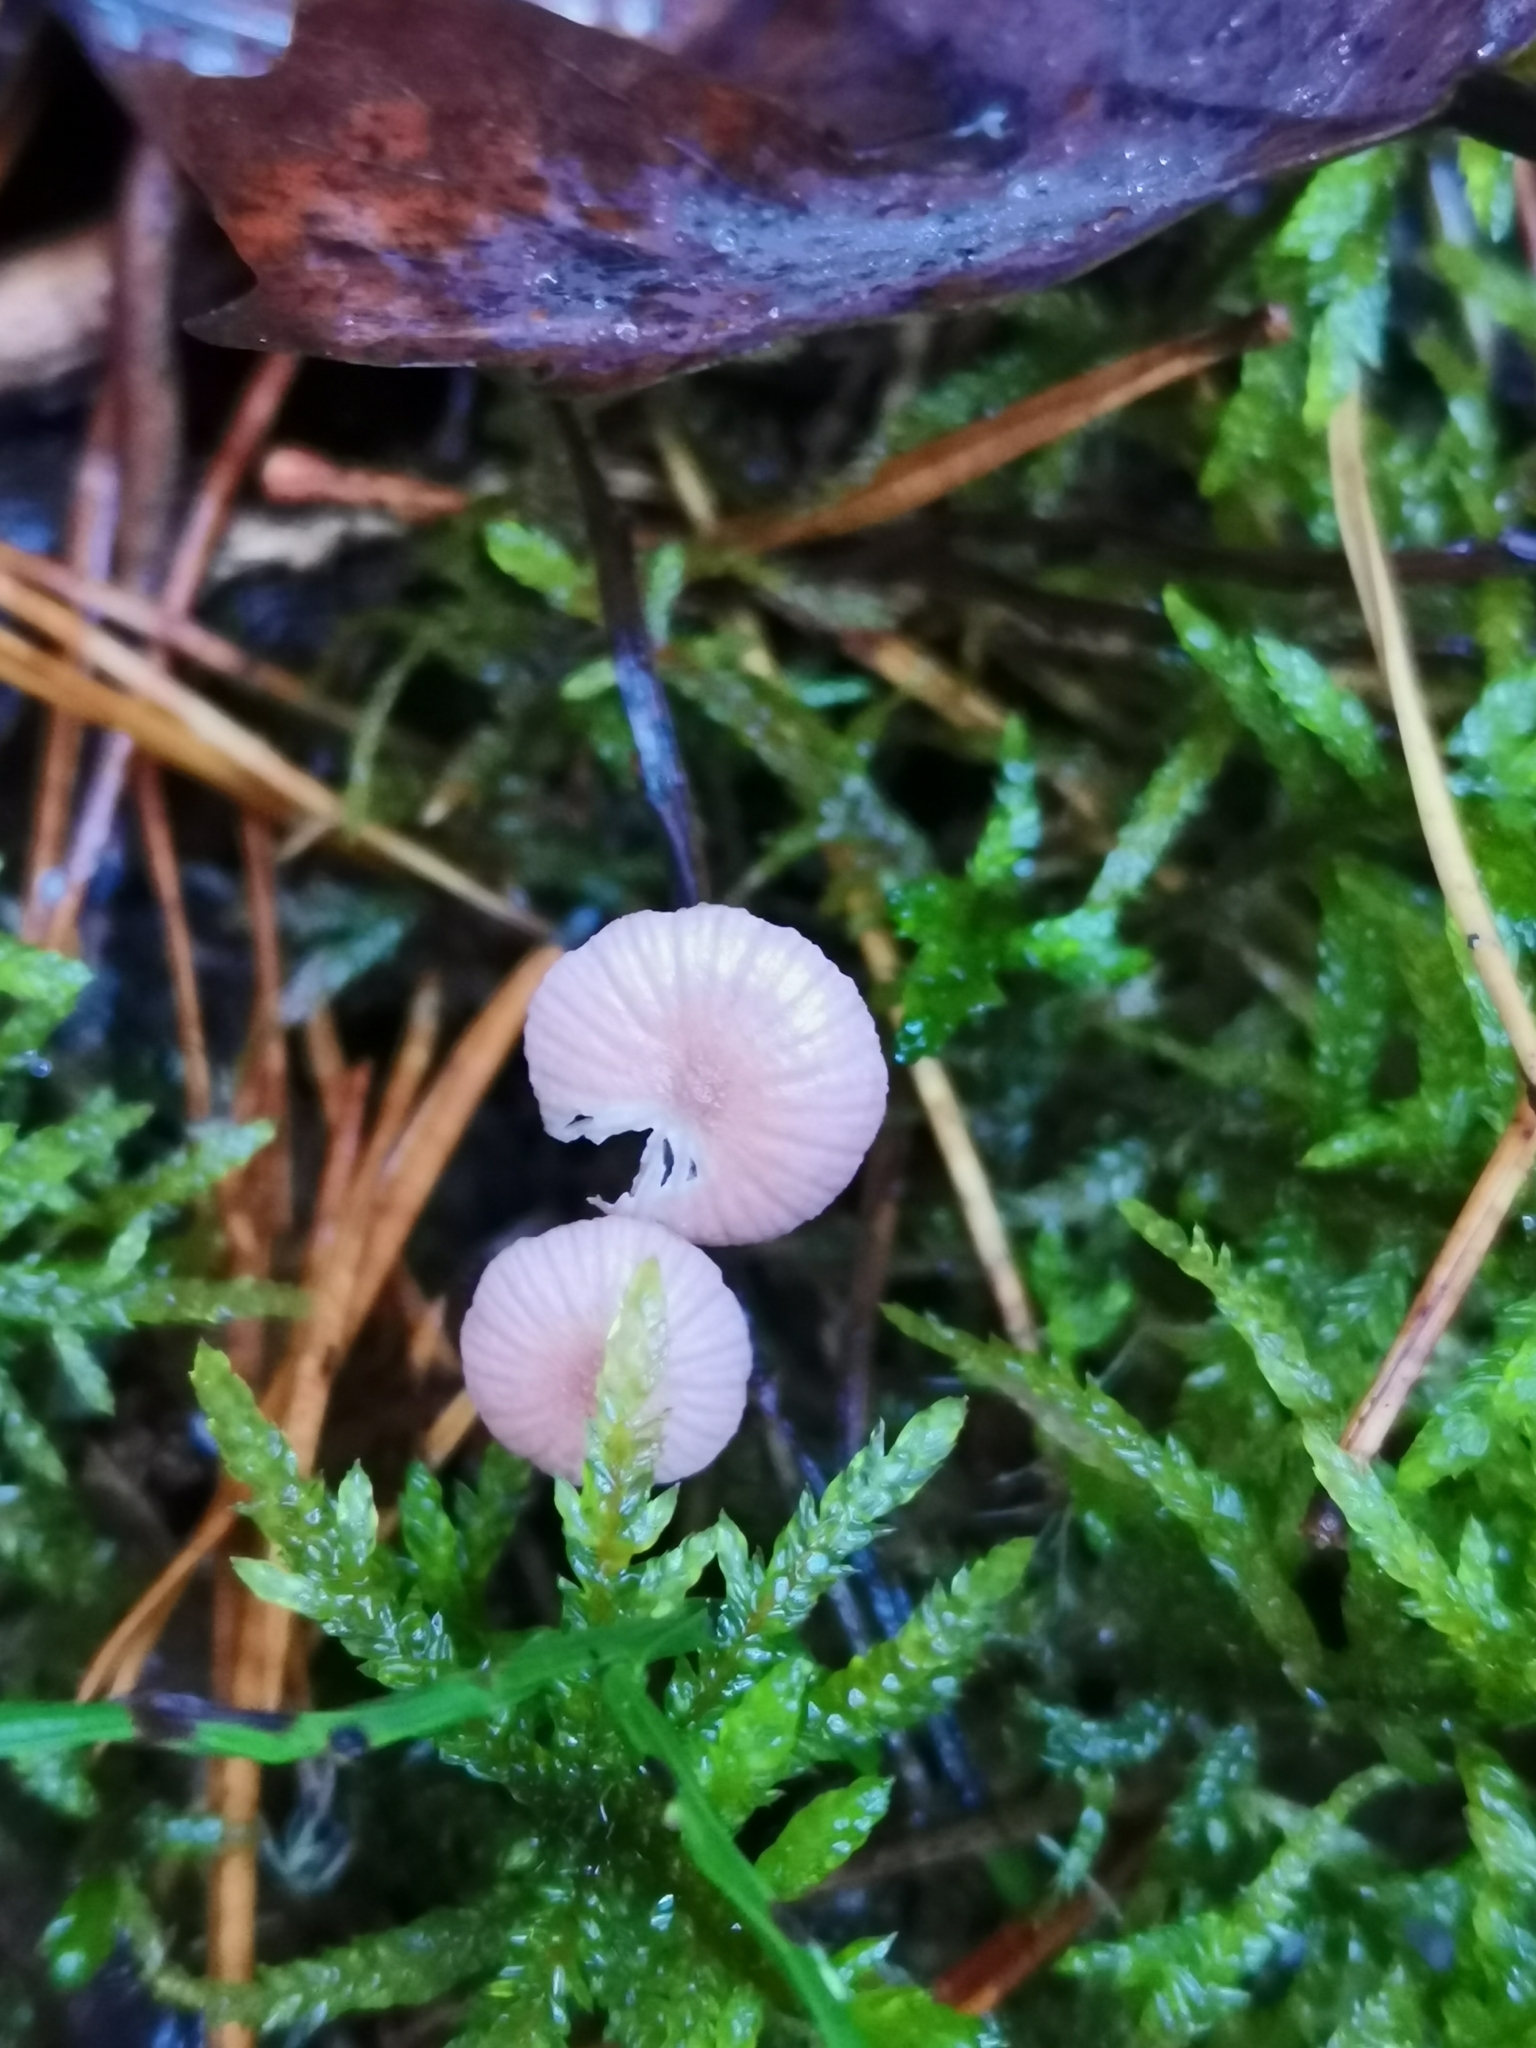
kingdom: Fungi
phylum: Basidiomycota
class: Agaricomycetes
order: Agaricales
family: Mycenaceae
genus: Mycena
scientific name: Mycena rosella
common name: Pink bonnet
